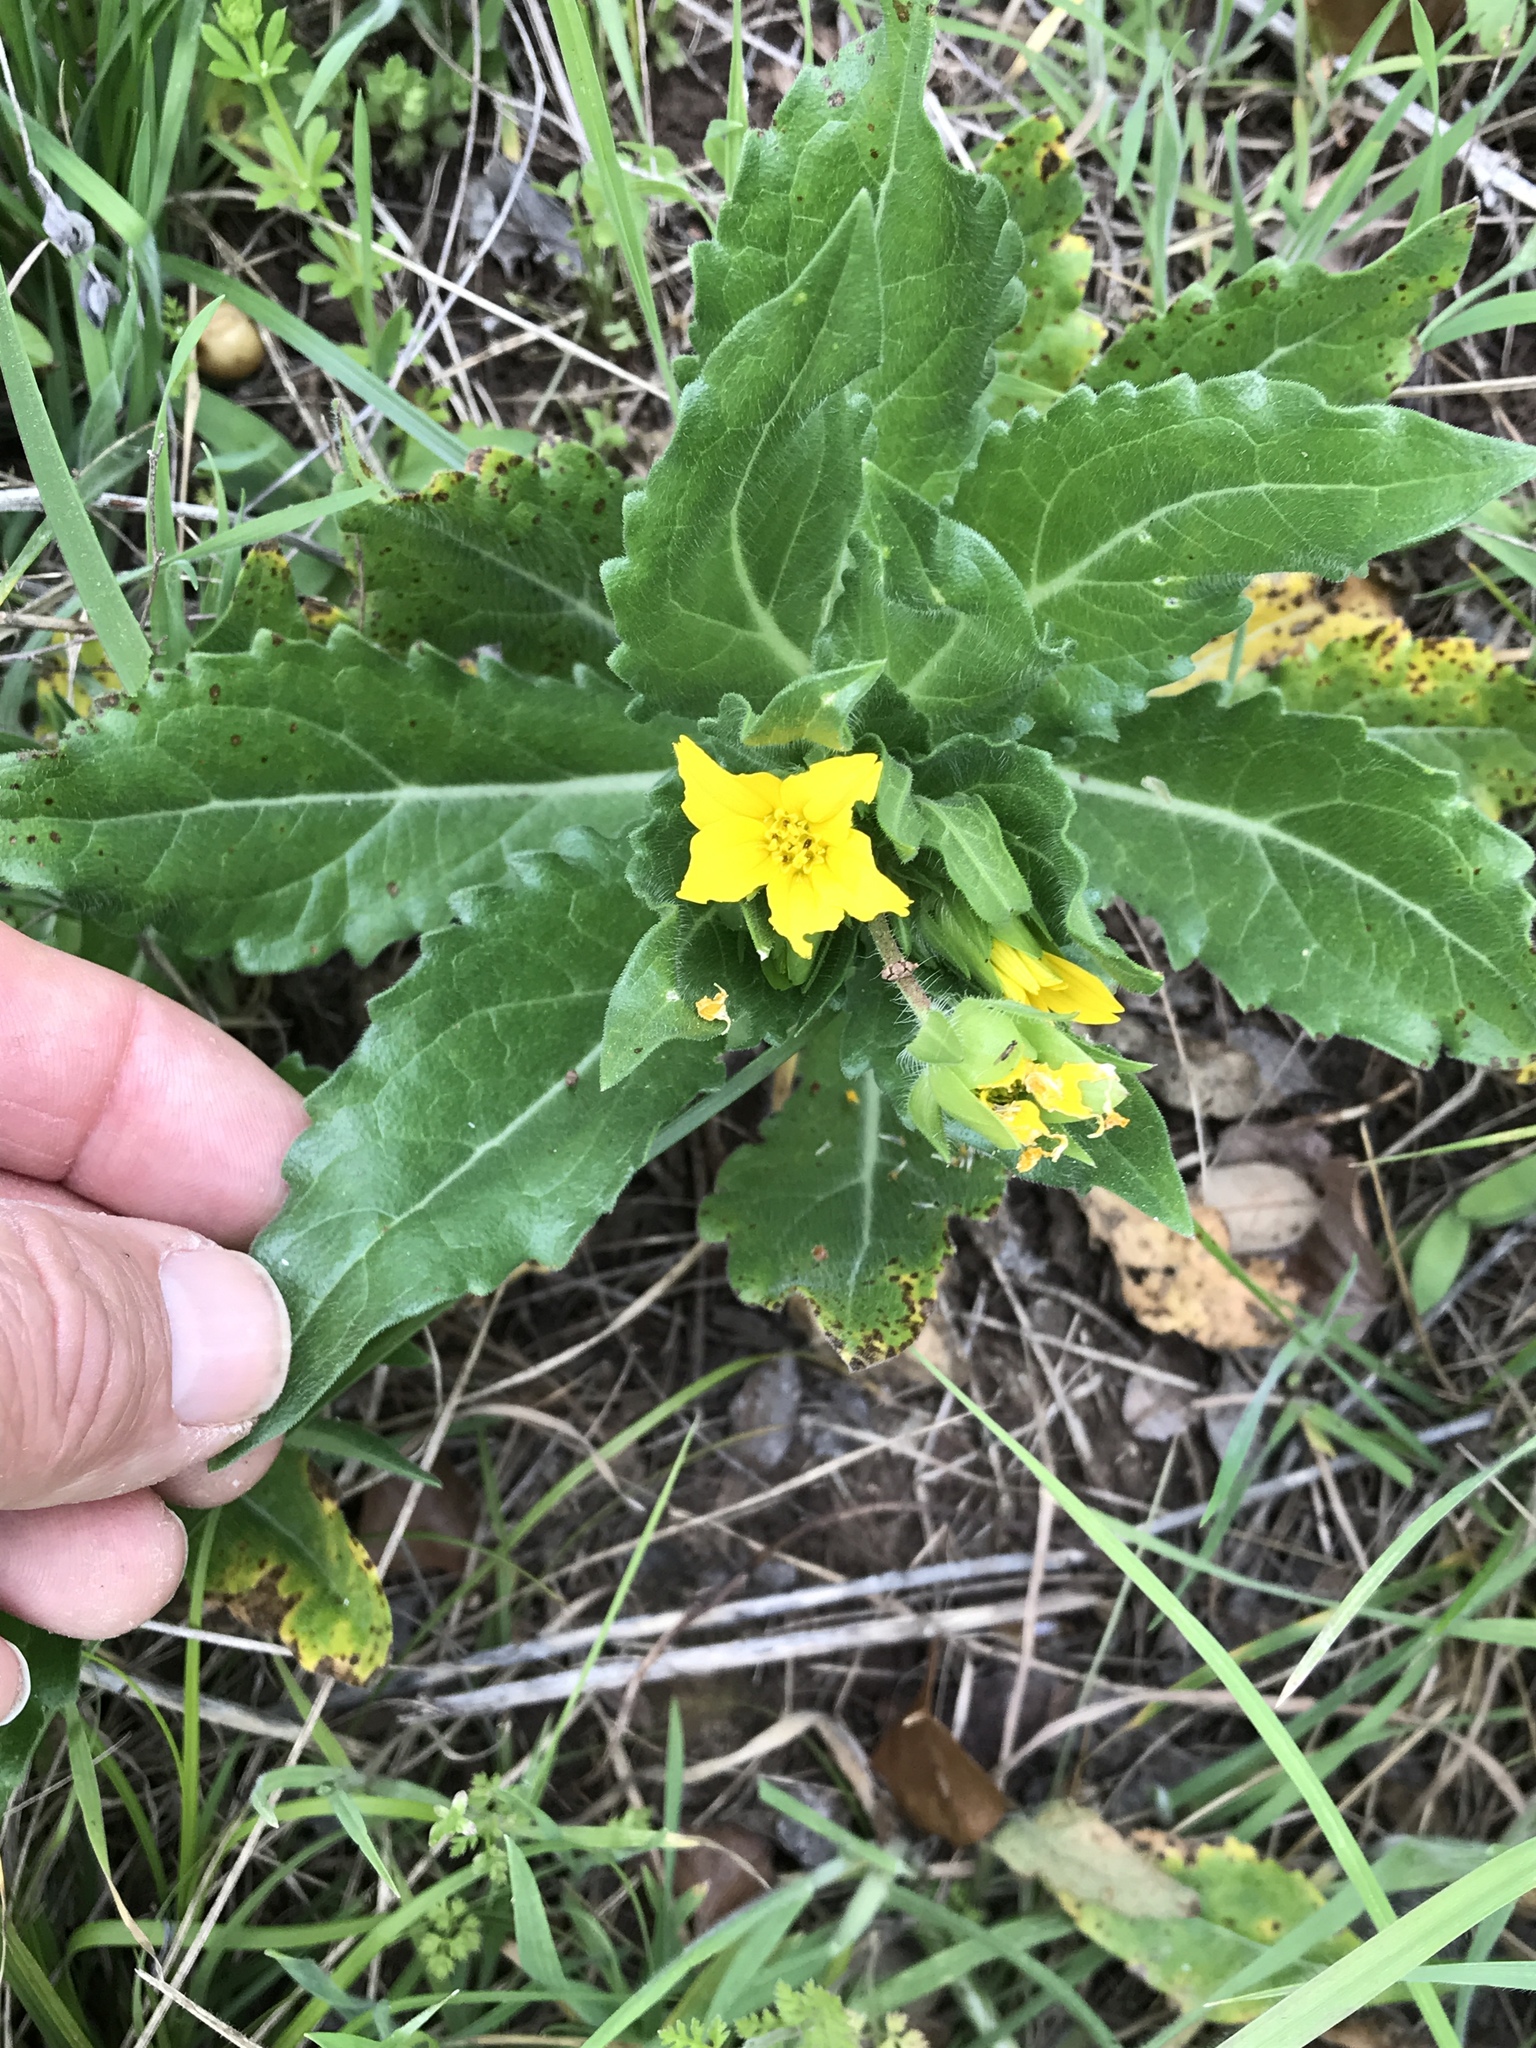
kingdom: Plantae
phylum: Tracheophyta
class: Magnoliopsida
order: Asterales
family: Asteraceae
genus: Lindheimera
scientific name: Lindheimera texana
